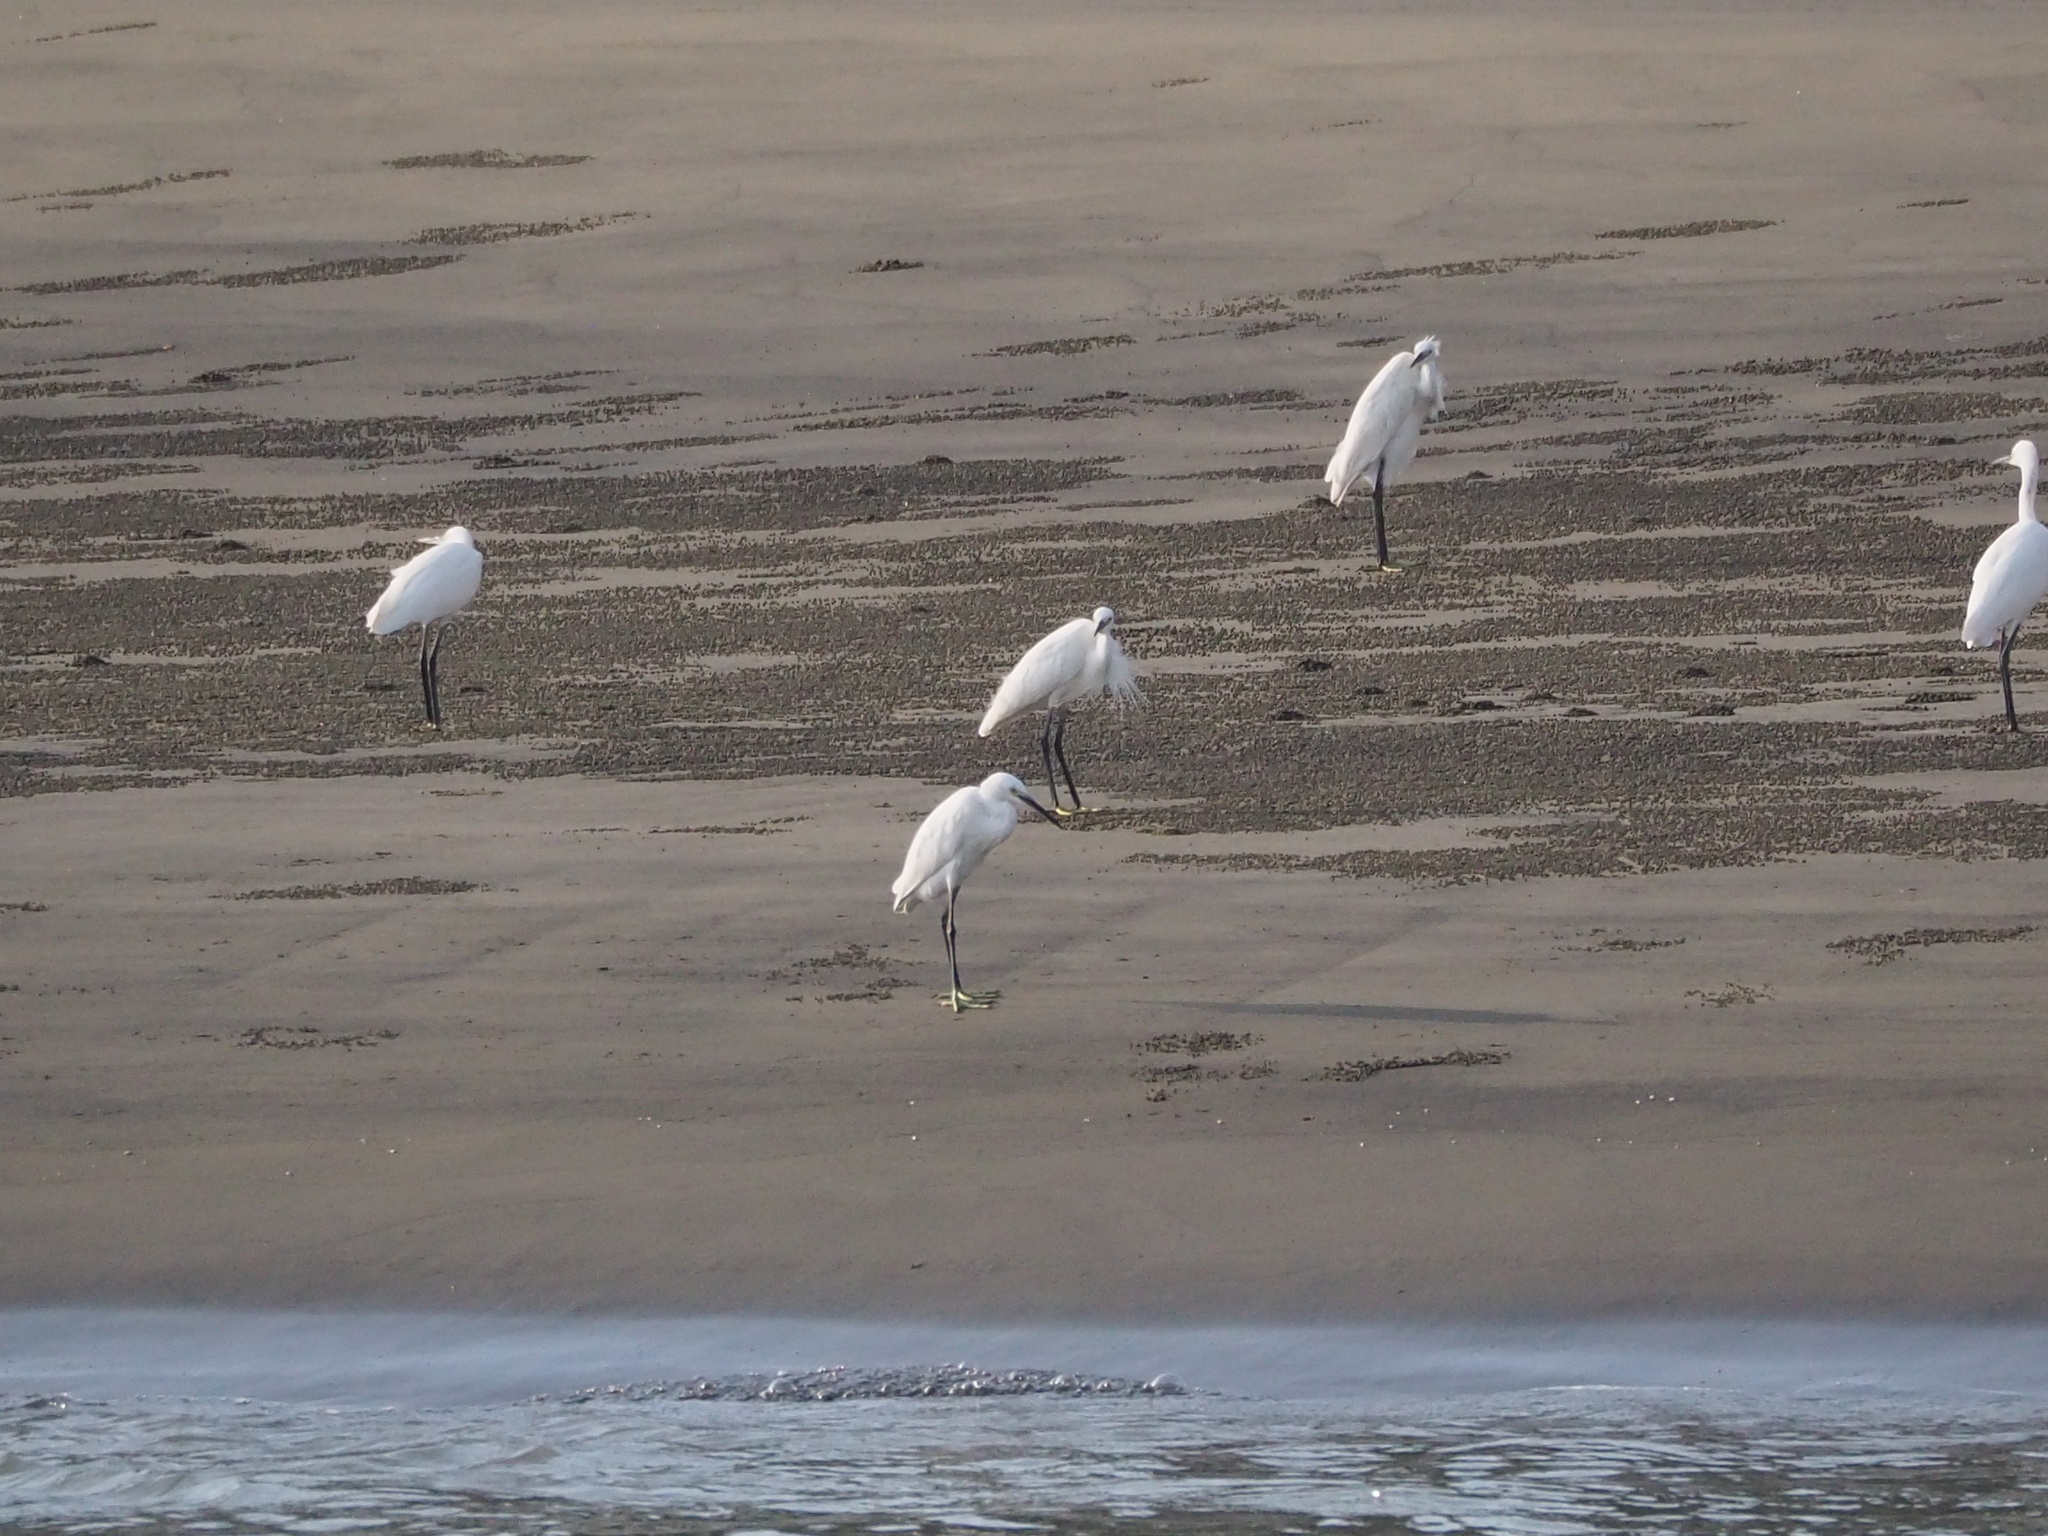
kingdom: Animalia
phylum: Chordata
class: Aves
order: Pelecaniformes
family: Ardeidae
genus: Egretta
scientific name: Egretta garzetta
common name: Little egret
